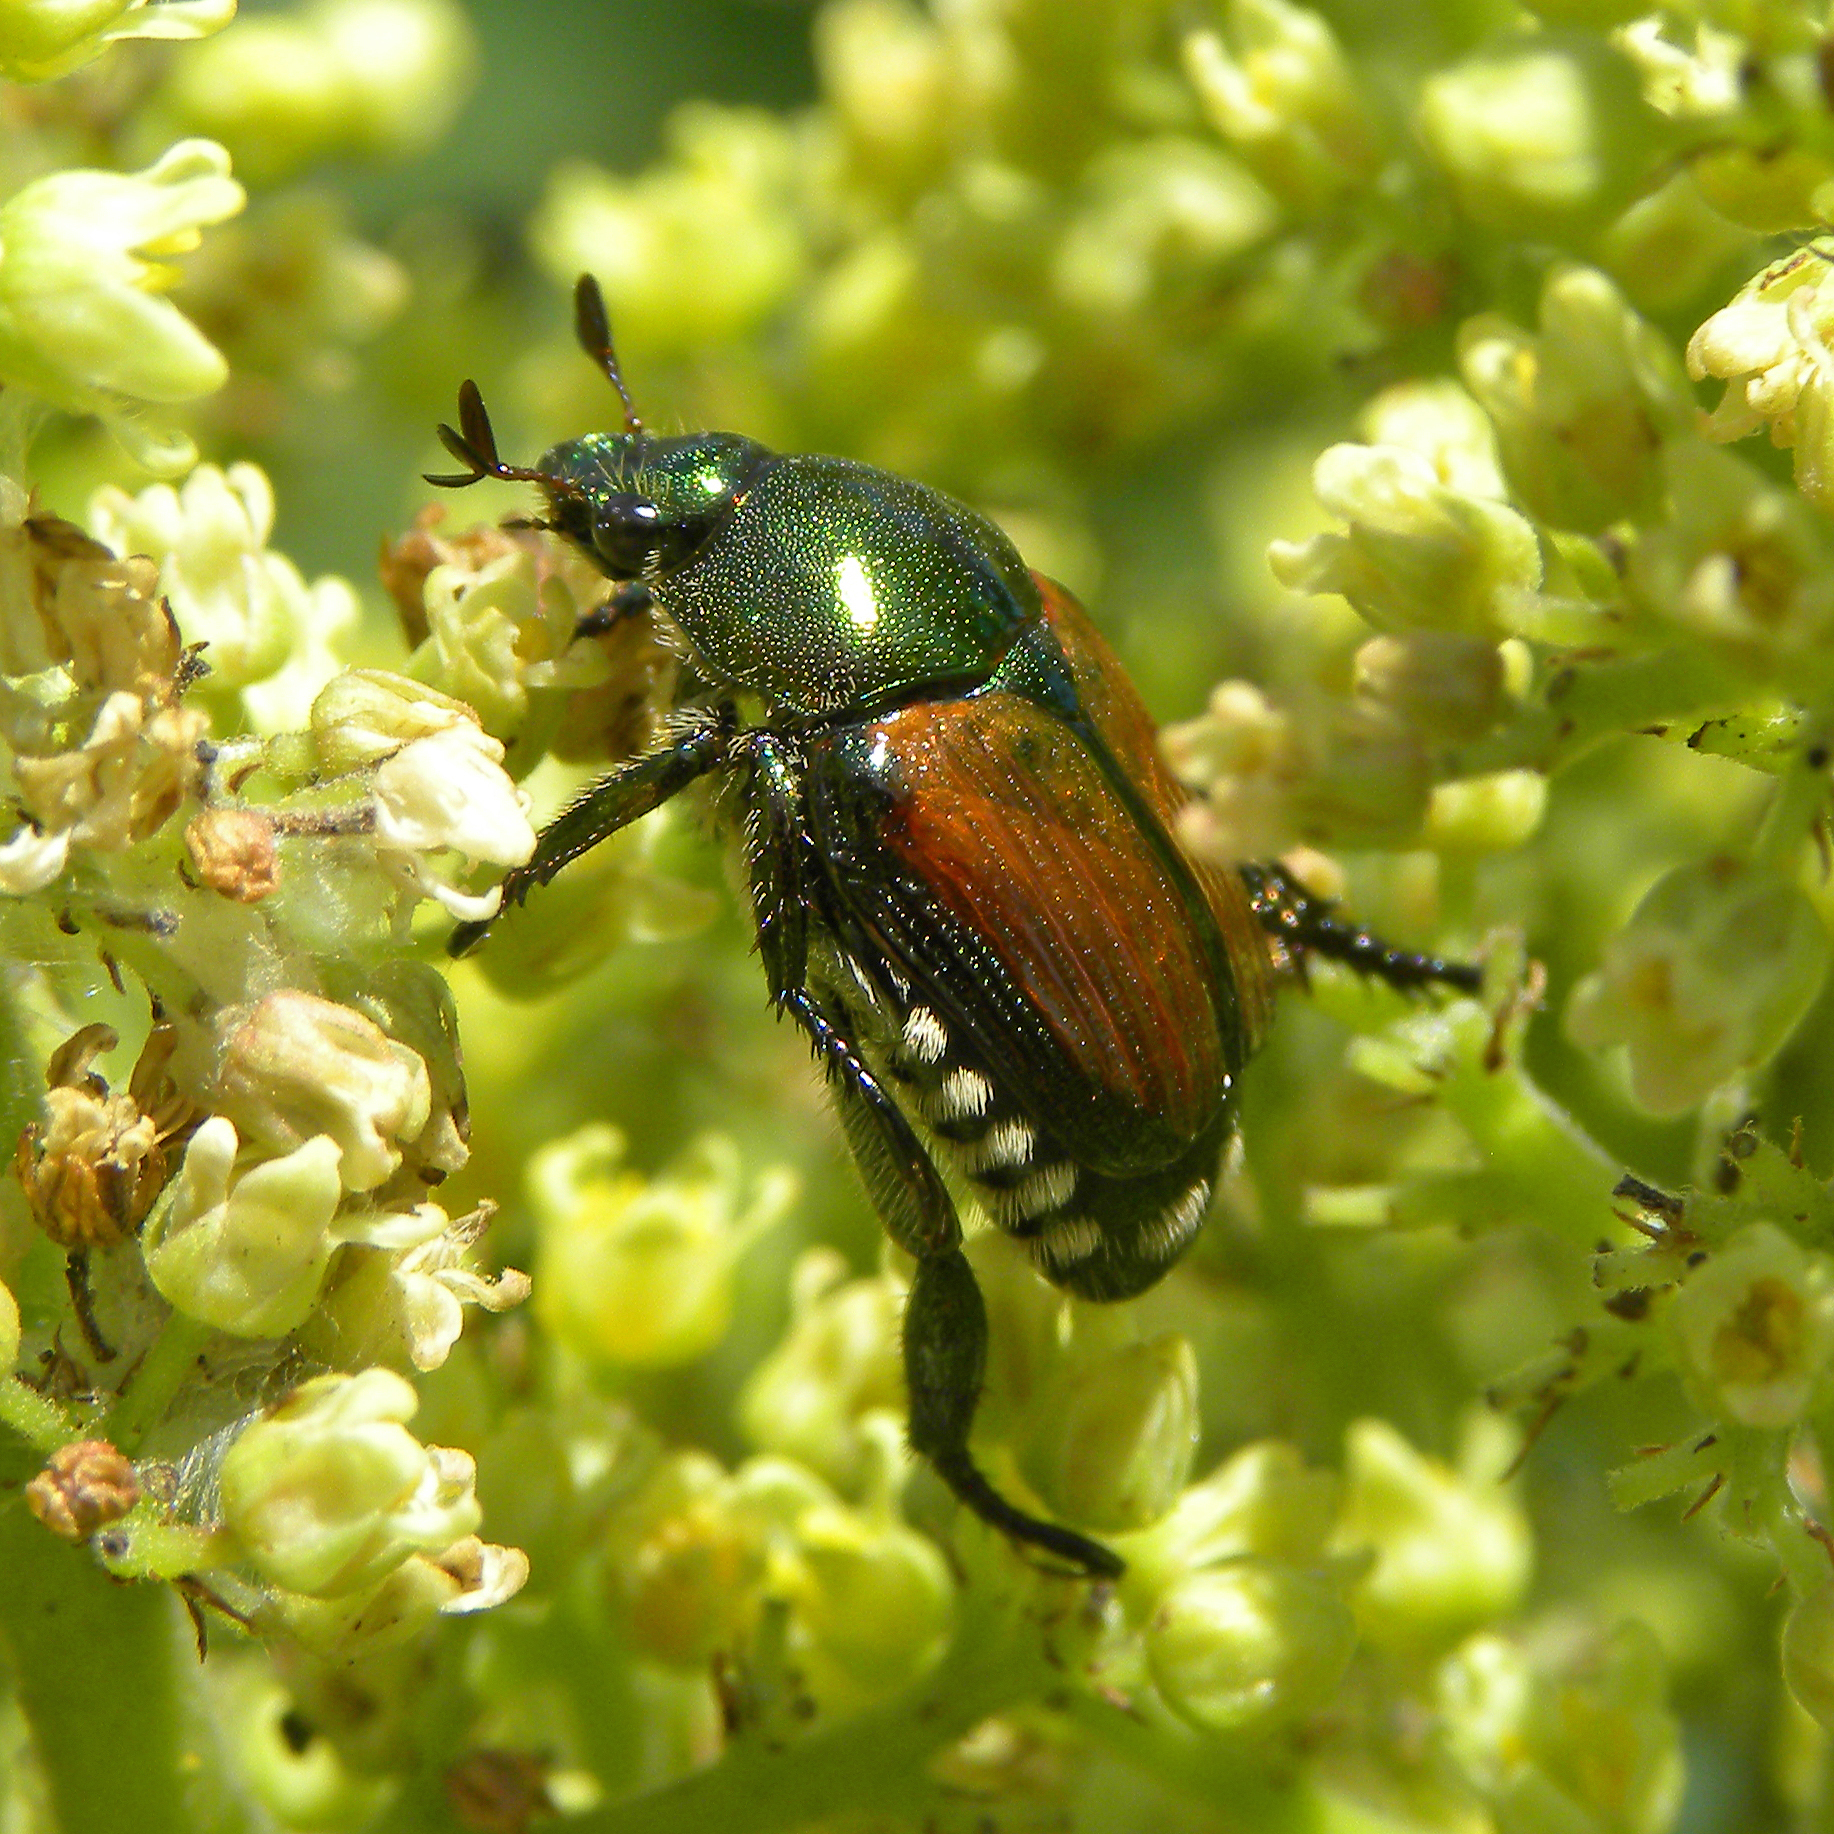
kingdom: Animalia
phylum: Arthropoda
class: Insecta
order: Coleoptera
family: Scarabaeidae
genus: Popillia
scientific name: Popillia japonica
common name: Japanese beetle
